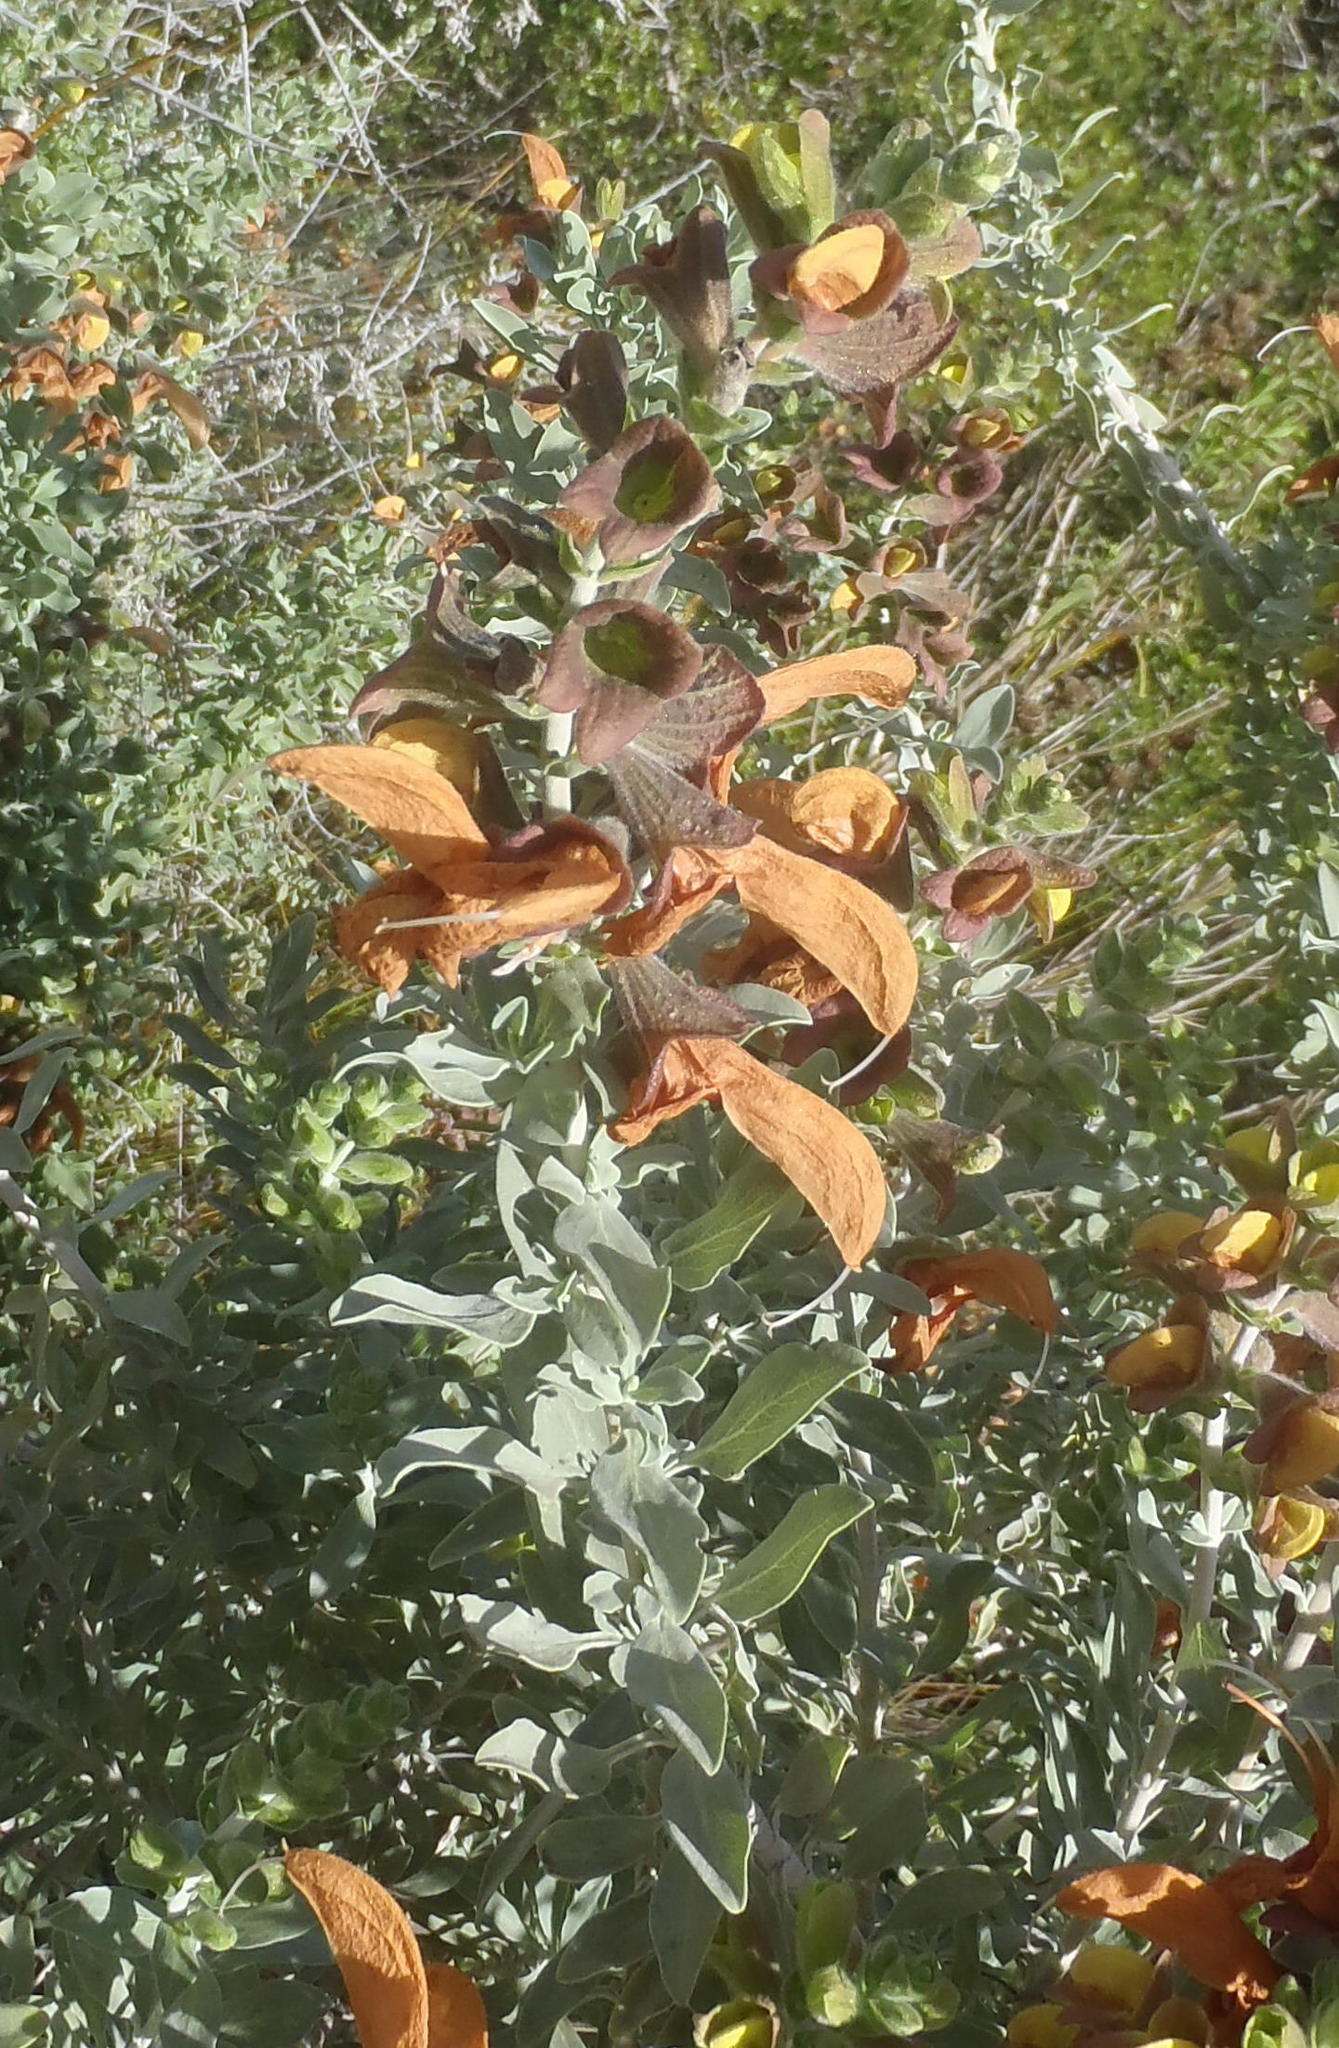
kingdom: Plantae
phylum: Tracheophyta
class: Magnoliopsida
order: Lamiales
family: Lamiaceae
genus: Salvia
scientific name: Salvia aurea
